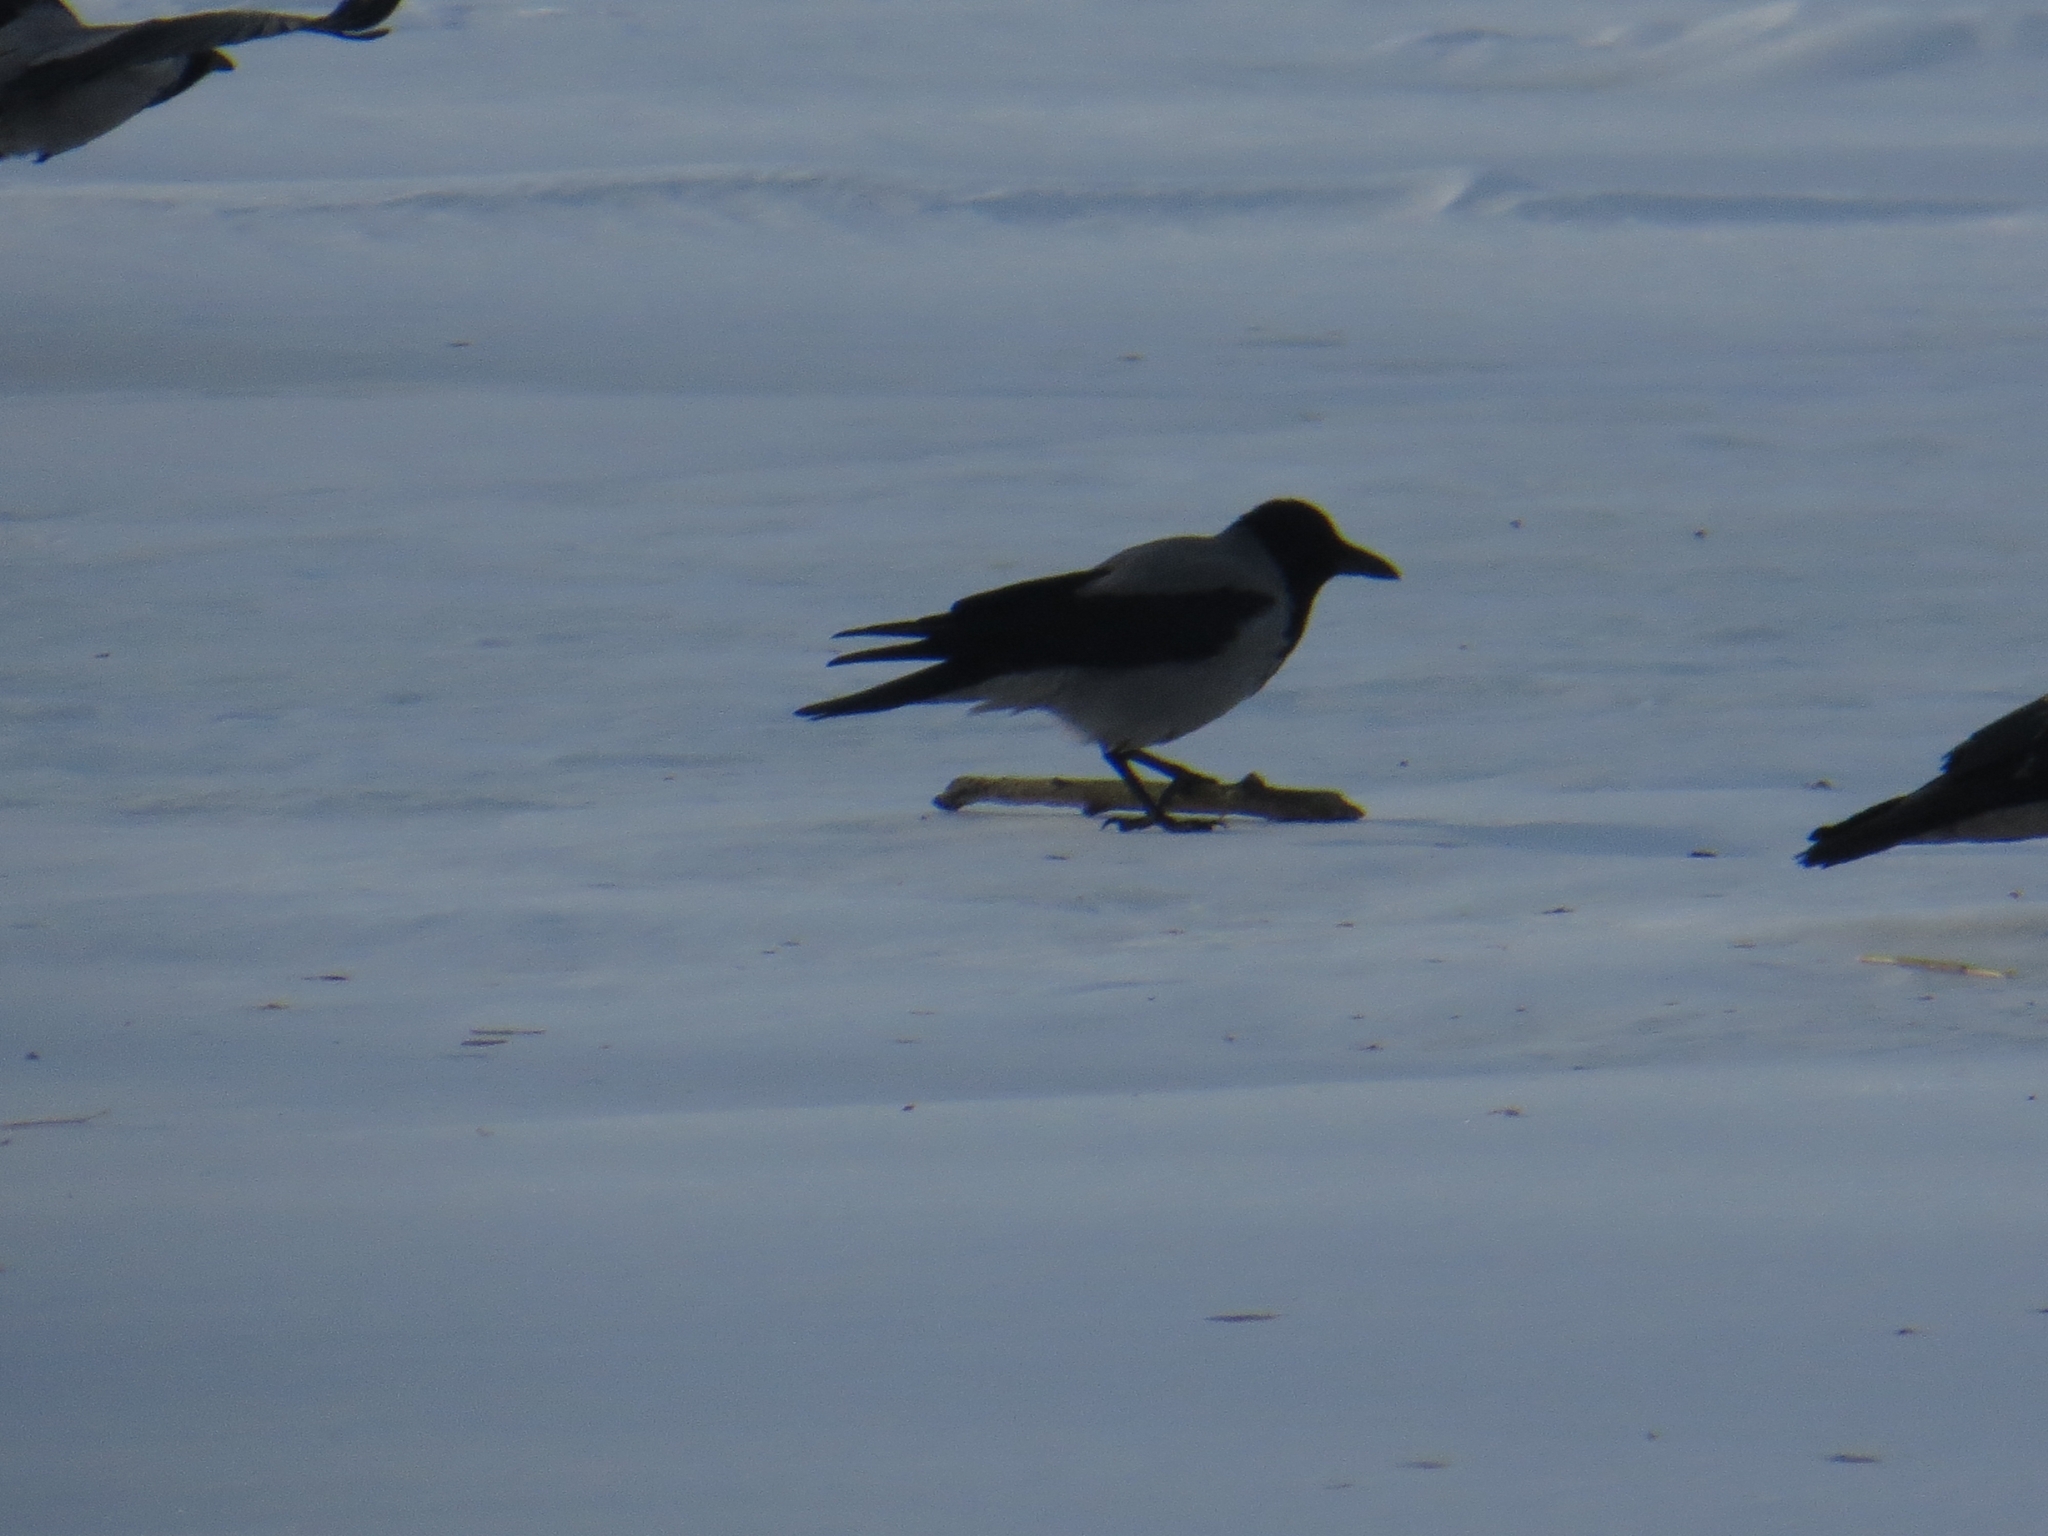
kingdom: Animalia
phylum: Chordata
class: Aves
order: Passeriformes
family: Corvidae
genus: Corvus
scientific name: Corvus cornix
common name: Hooded crow
